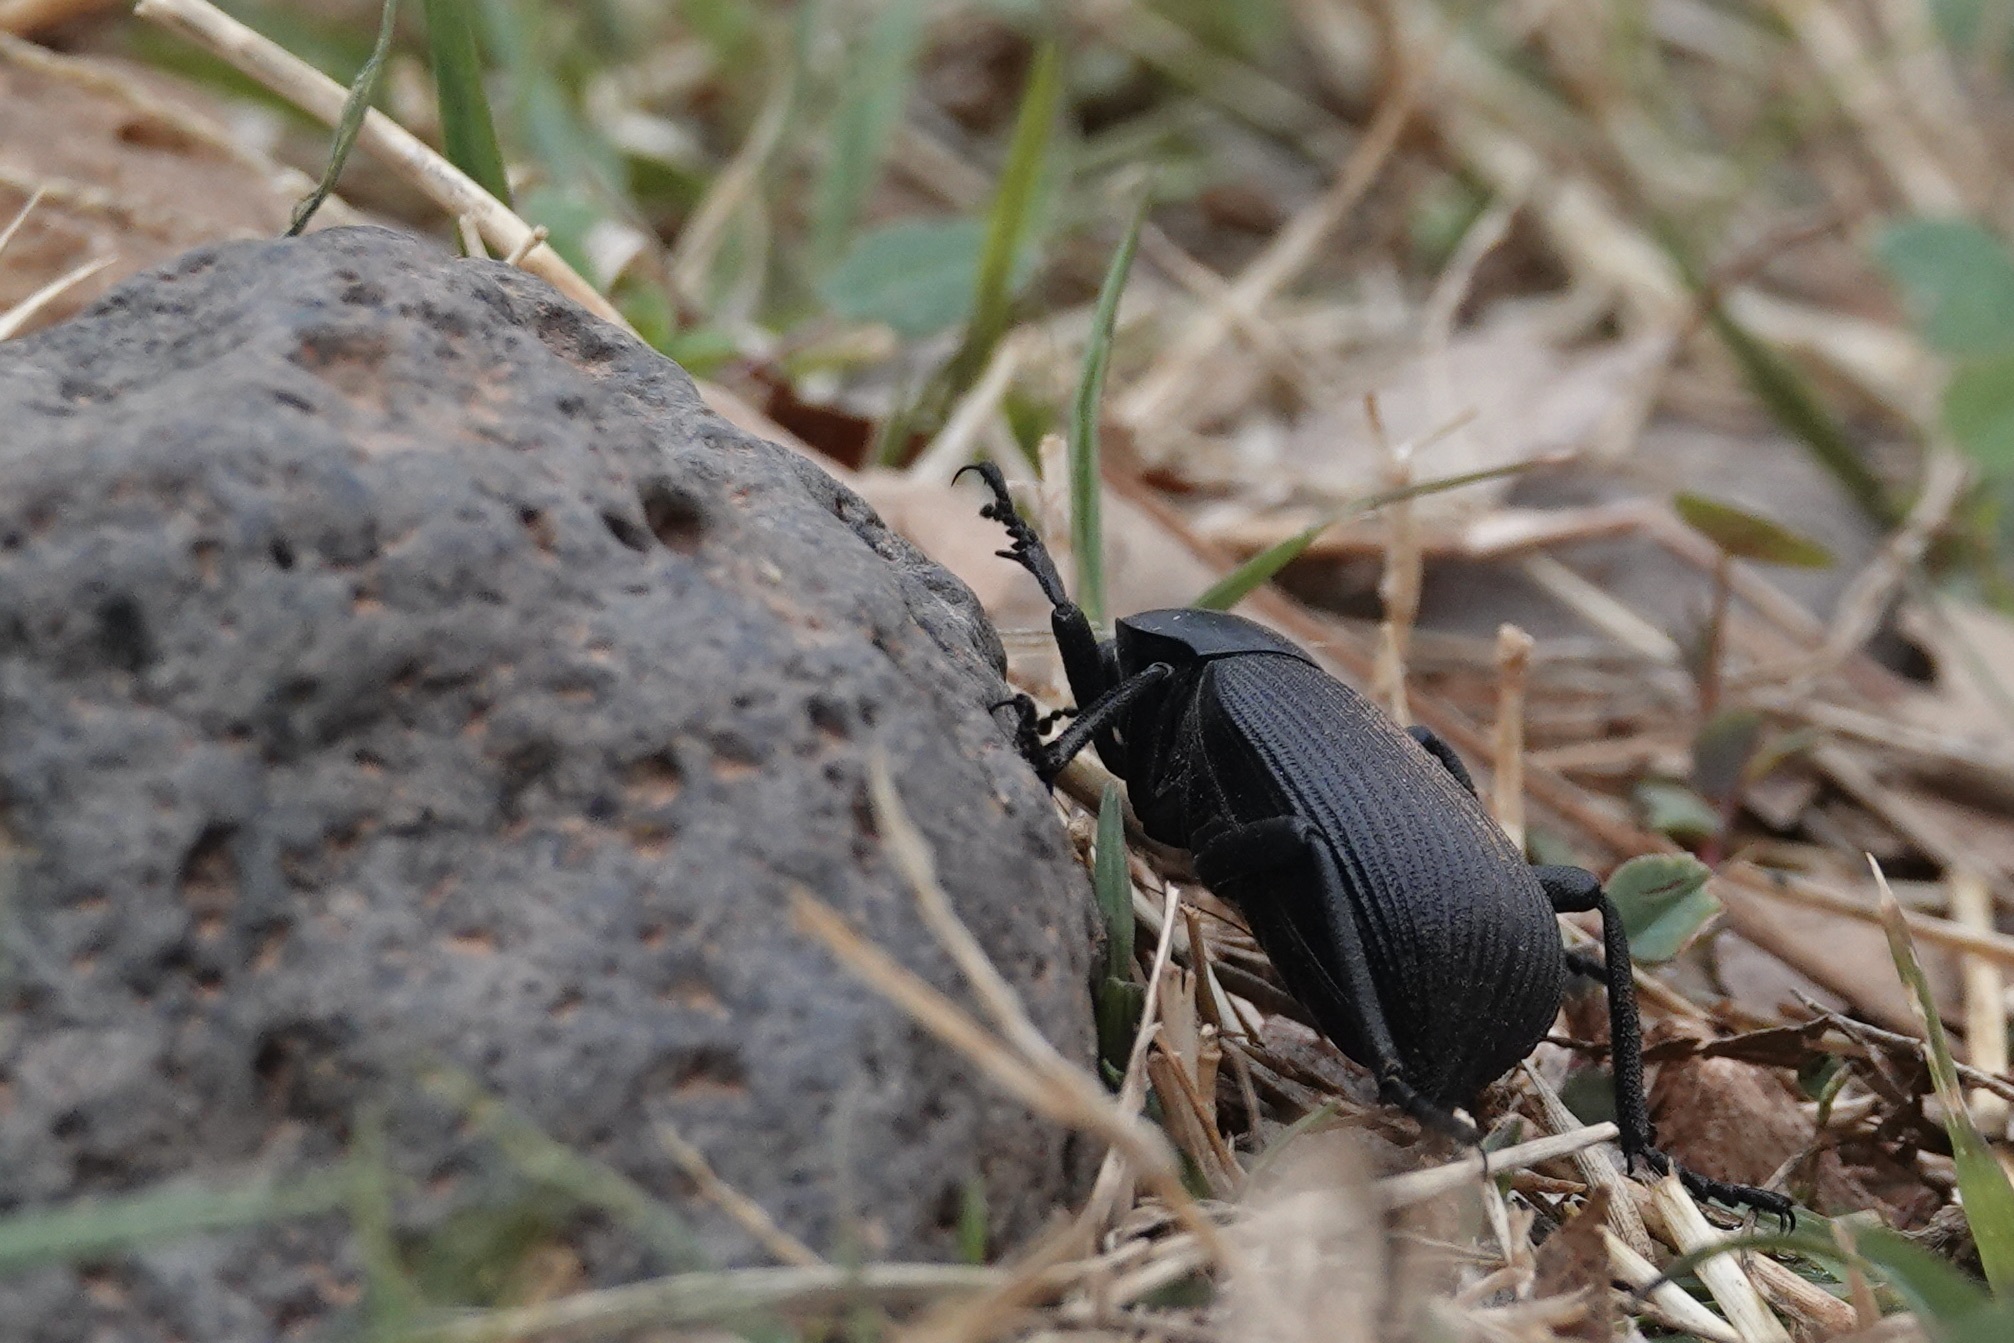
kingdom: Animalia
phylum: Arthropoda
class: Insecta
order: Coleoptera
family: Tenebrionidae
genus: Eleodes
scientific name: Eleodes obscura
